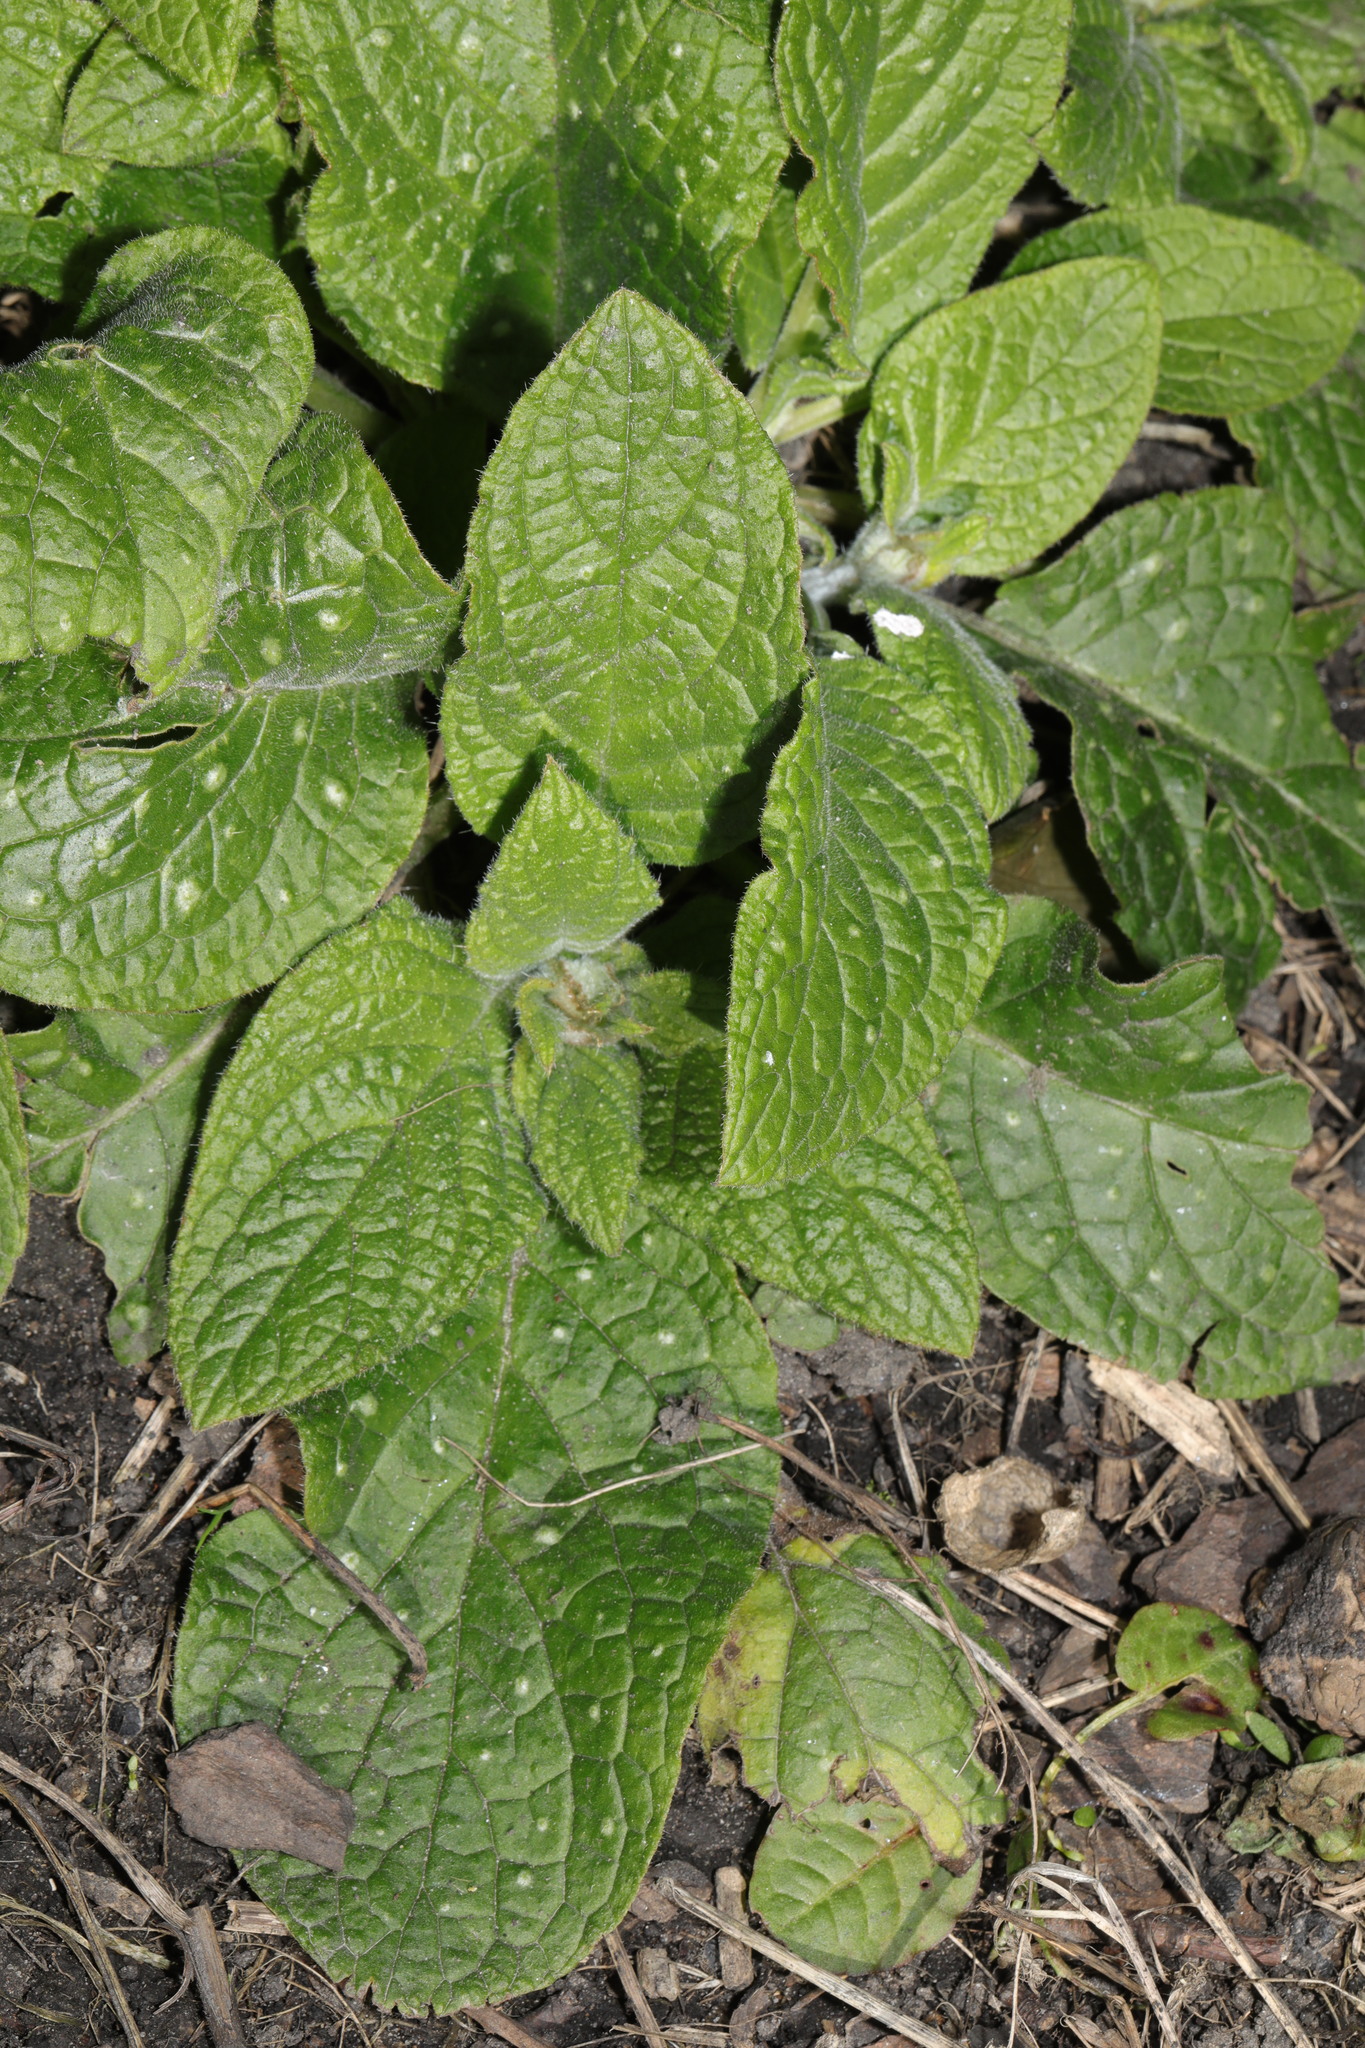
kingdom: Plantae
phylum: Tracheophyta
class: Magnoliopsida
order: Boraginales
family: Boraginaceae
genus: Pentaglottis
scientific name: Pentaglottis sempervirens
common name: Green alkanet
